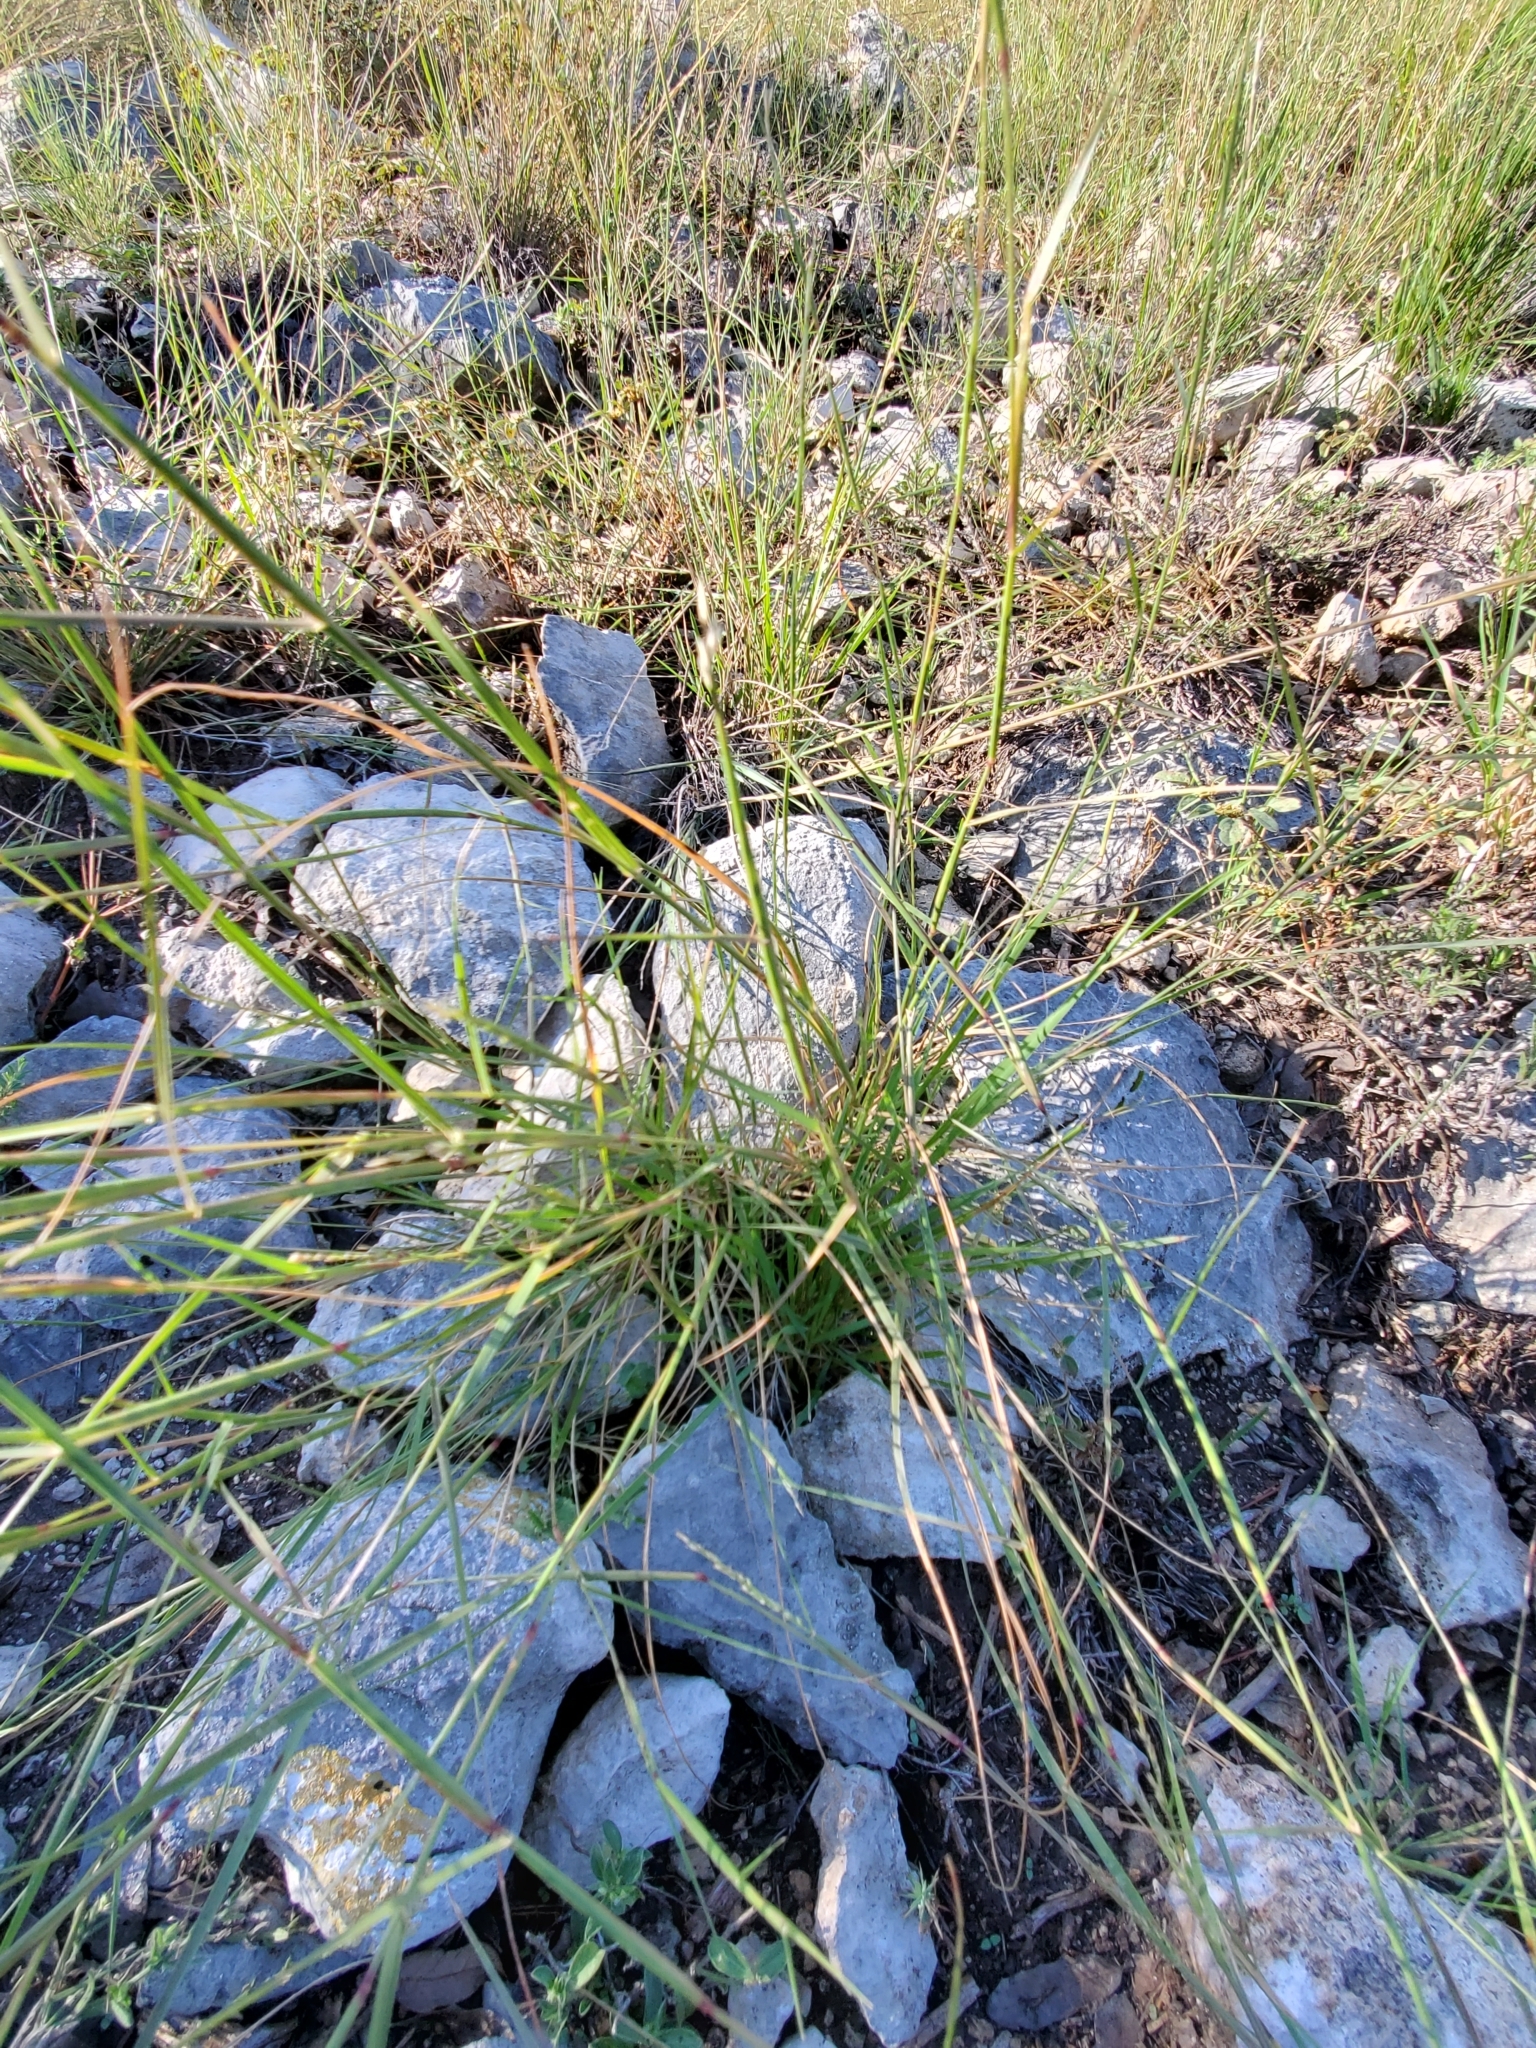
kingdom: Plantae
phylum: Tracheophyta
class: Liliopsida
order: Poales
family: Poaceae
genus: Sporobolus
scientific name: Sporobolus vaginiflorus
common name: Poverty dropseed
